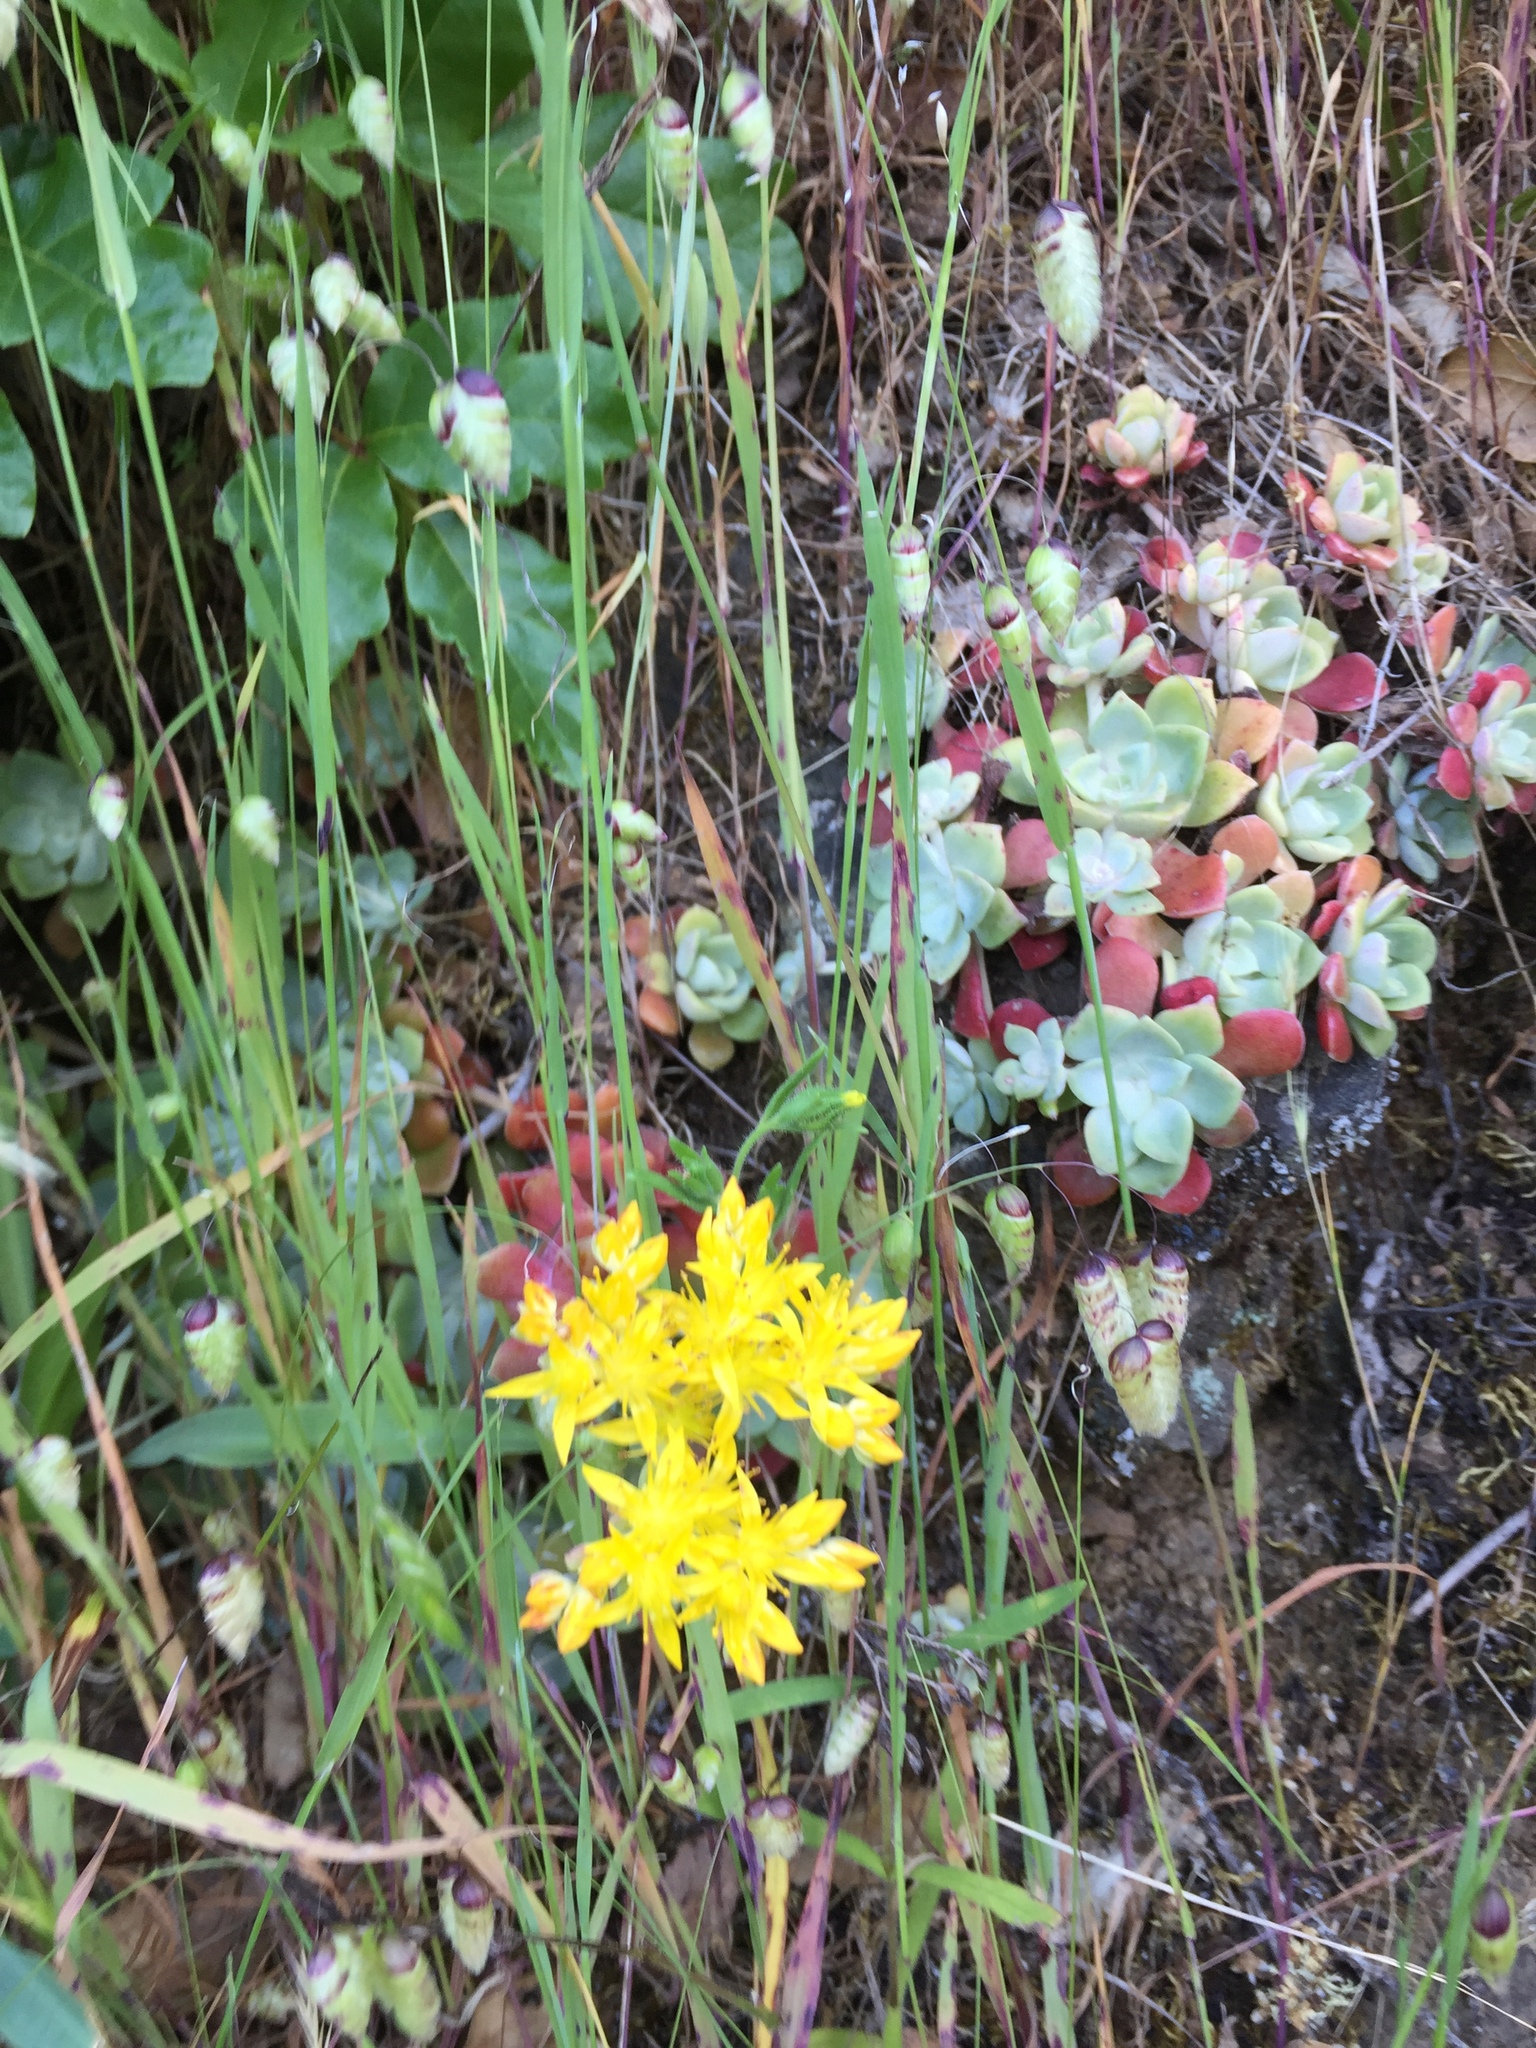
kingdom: Plantae
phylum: Tracheophyta
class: Magnoliopsida
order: Saxifragales
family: Crassulaceae
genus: Sedum
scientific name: Sedum spathulifolium
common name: Colorado stonecrop
